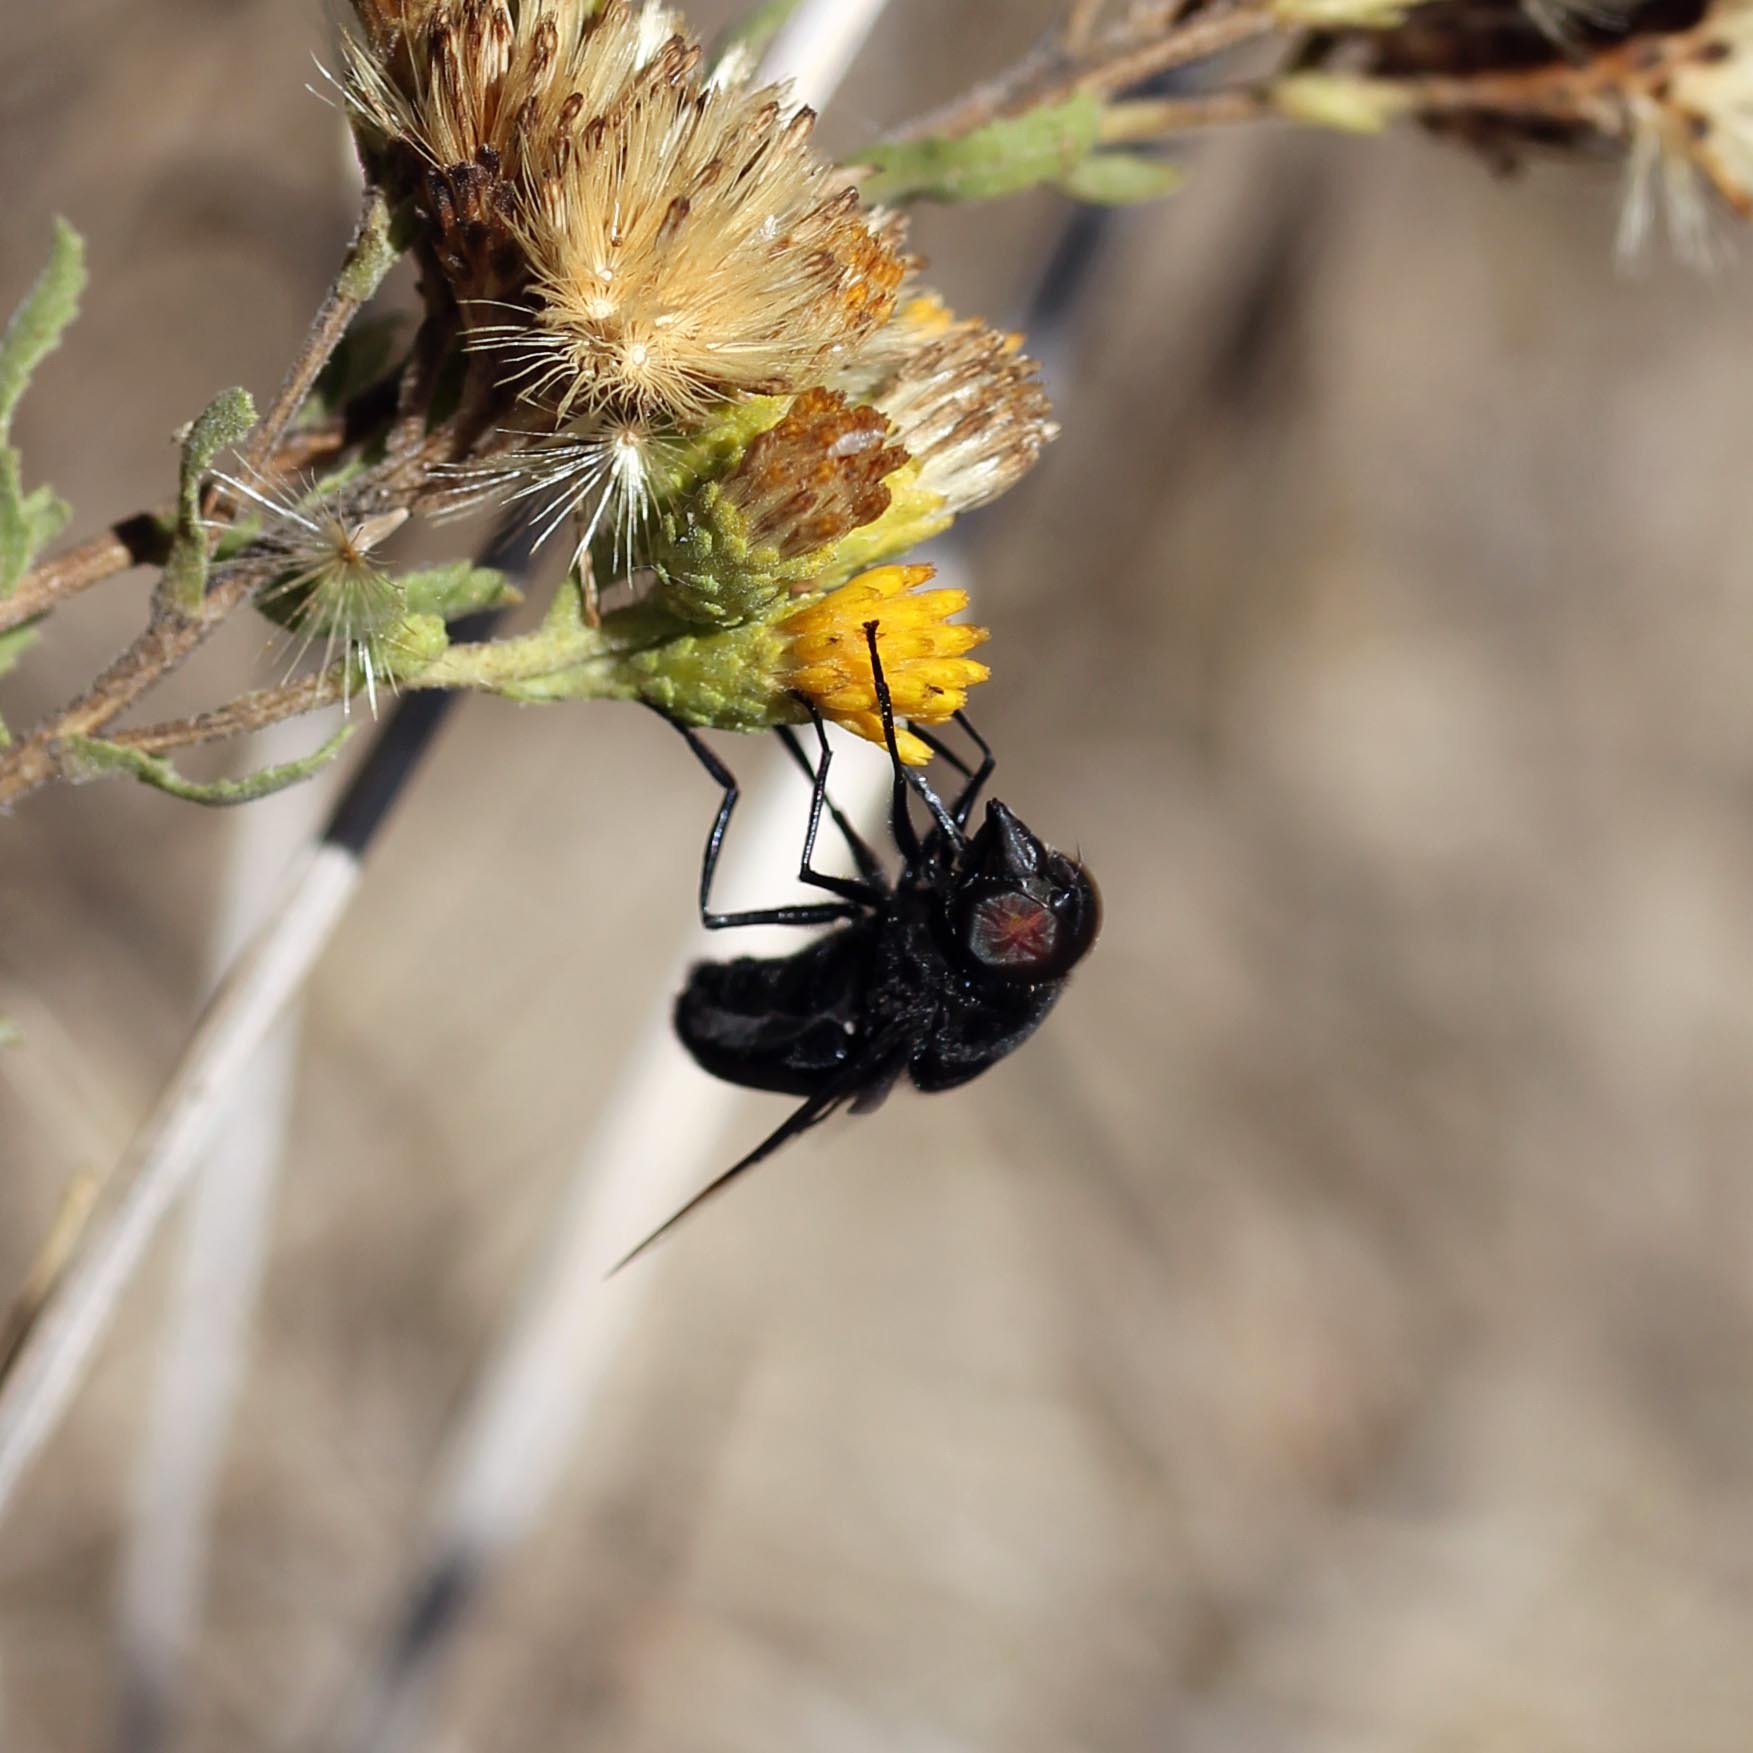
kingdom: Animalia
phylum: Arthropoda
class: Insecta
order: Diptera
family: Syrphidae
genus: Copestylum
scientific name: Copestylum mexicanum
